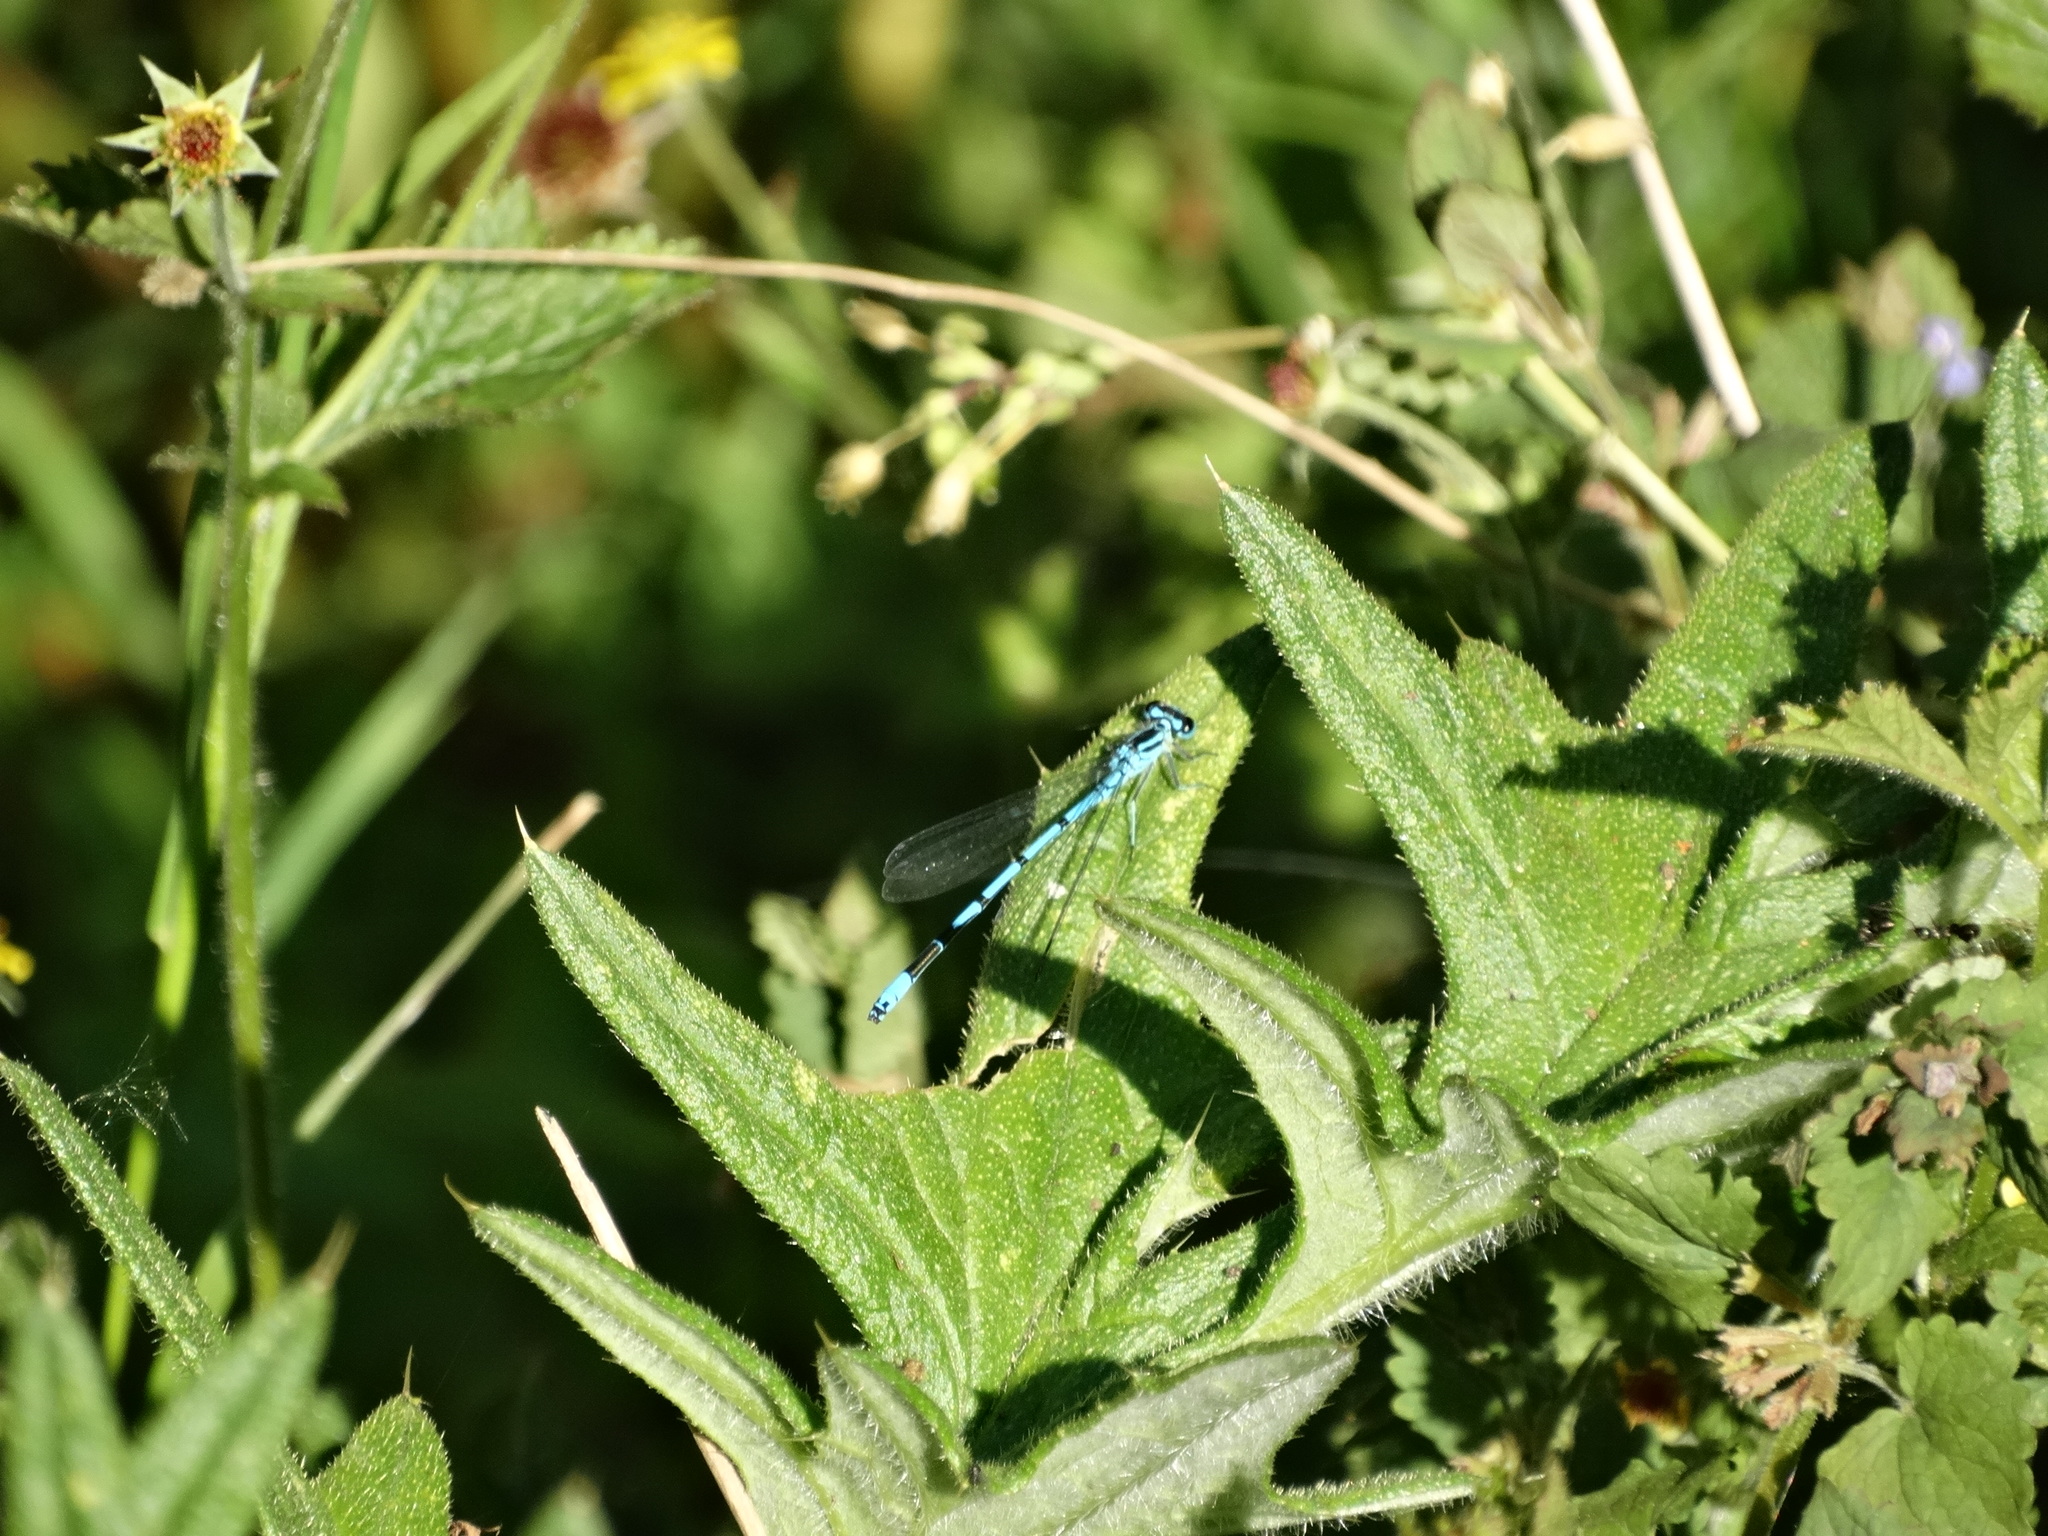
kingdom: Animalia
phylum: Arthropoda
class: Insecta
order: Odonata
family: Coenagrionidae
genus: Coenagrion
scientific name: Coenagrion puella
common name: Azure damselfly
